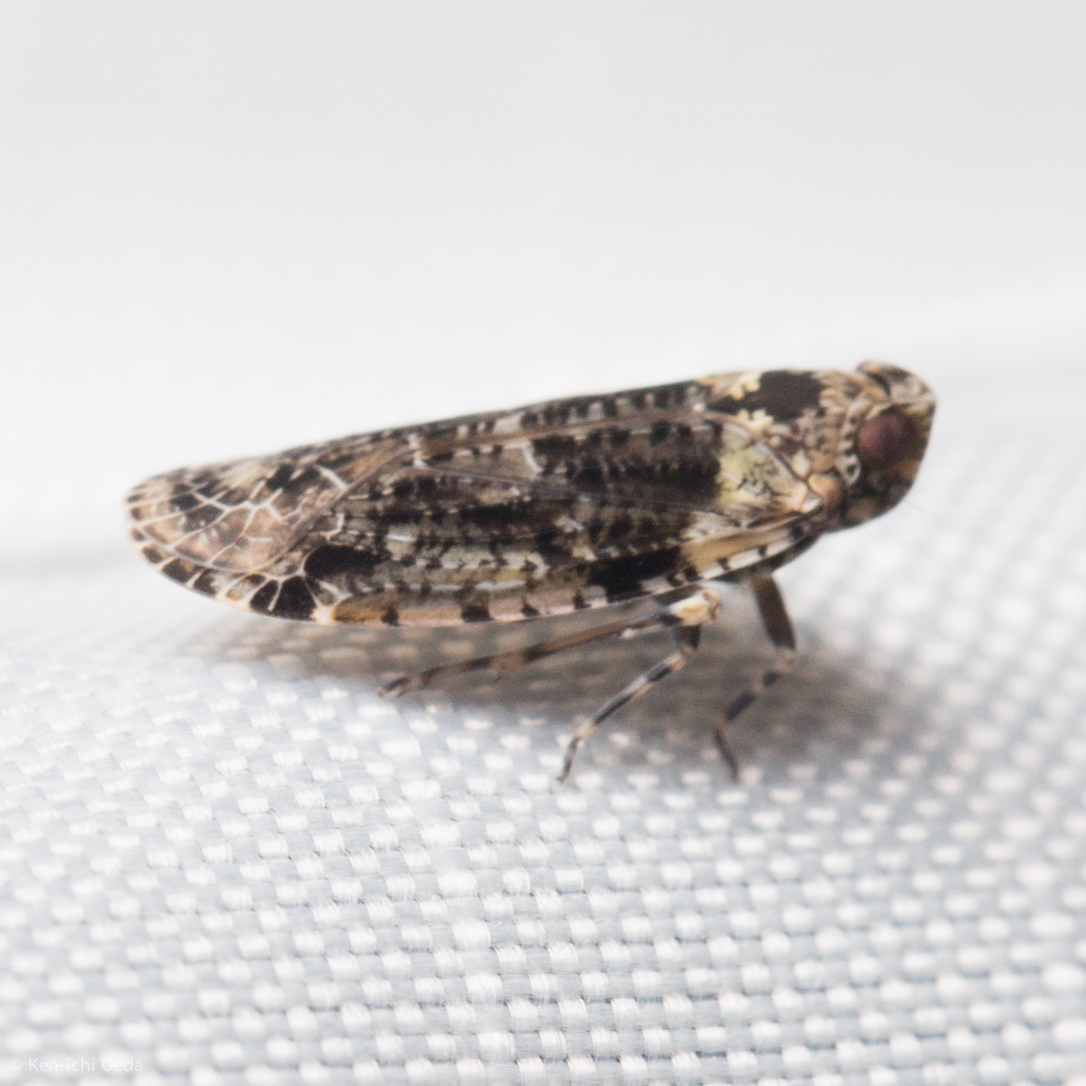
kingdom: Animalia
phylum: Arthropoda
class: Insecta
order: Hemiptera
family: Achilidae
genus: Catonia
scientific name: Catonia nava
